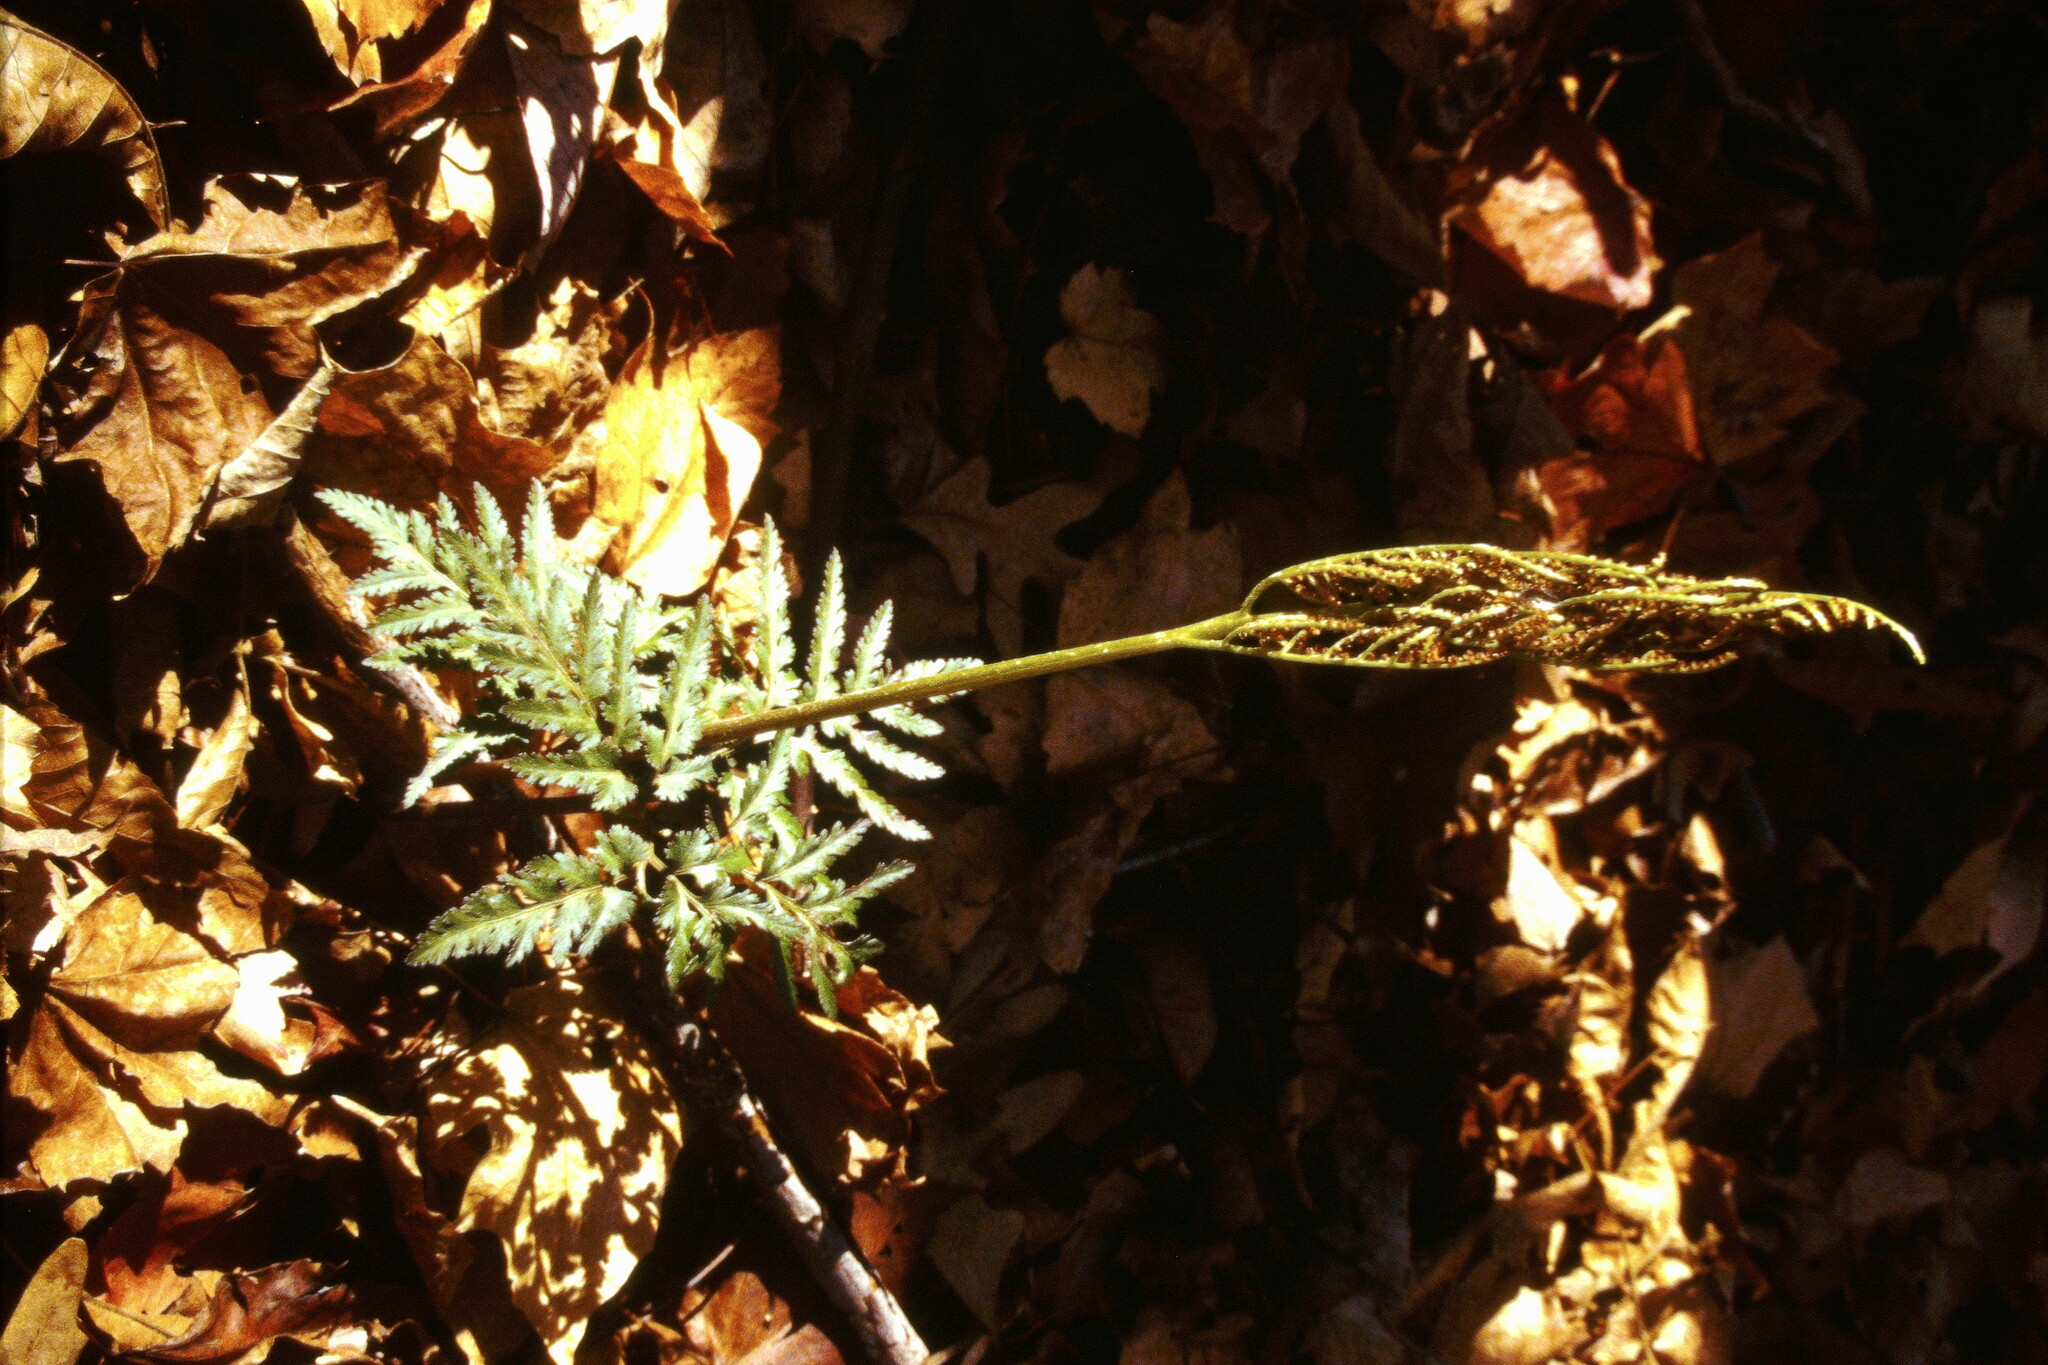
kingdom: Plantae
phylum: Tracheophyta
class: Polypodiopsida
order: Ophioglossales
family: Ophioglossaceae
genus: Sceptridium
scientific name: Sceptridium dissectum
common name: Cut-leaved grapefern
